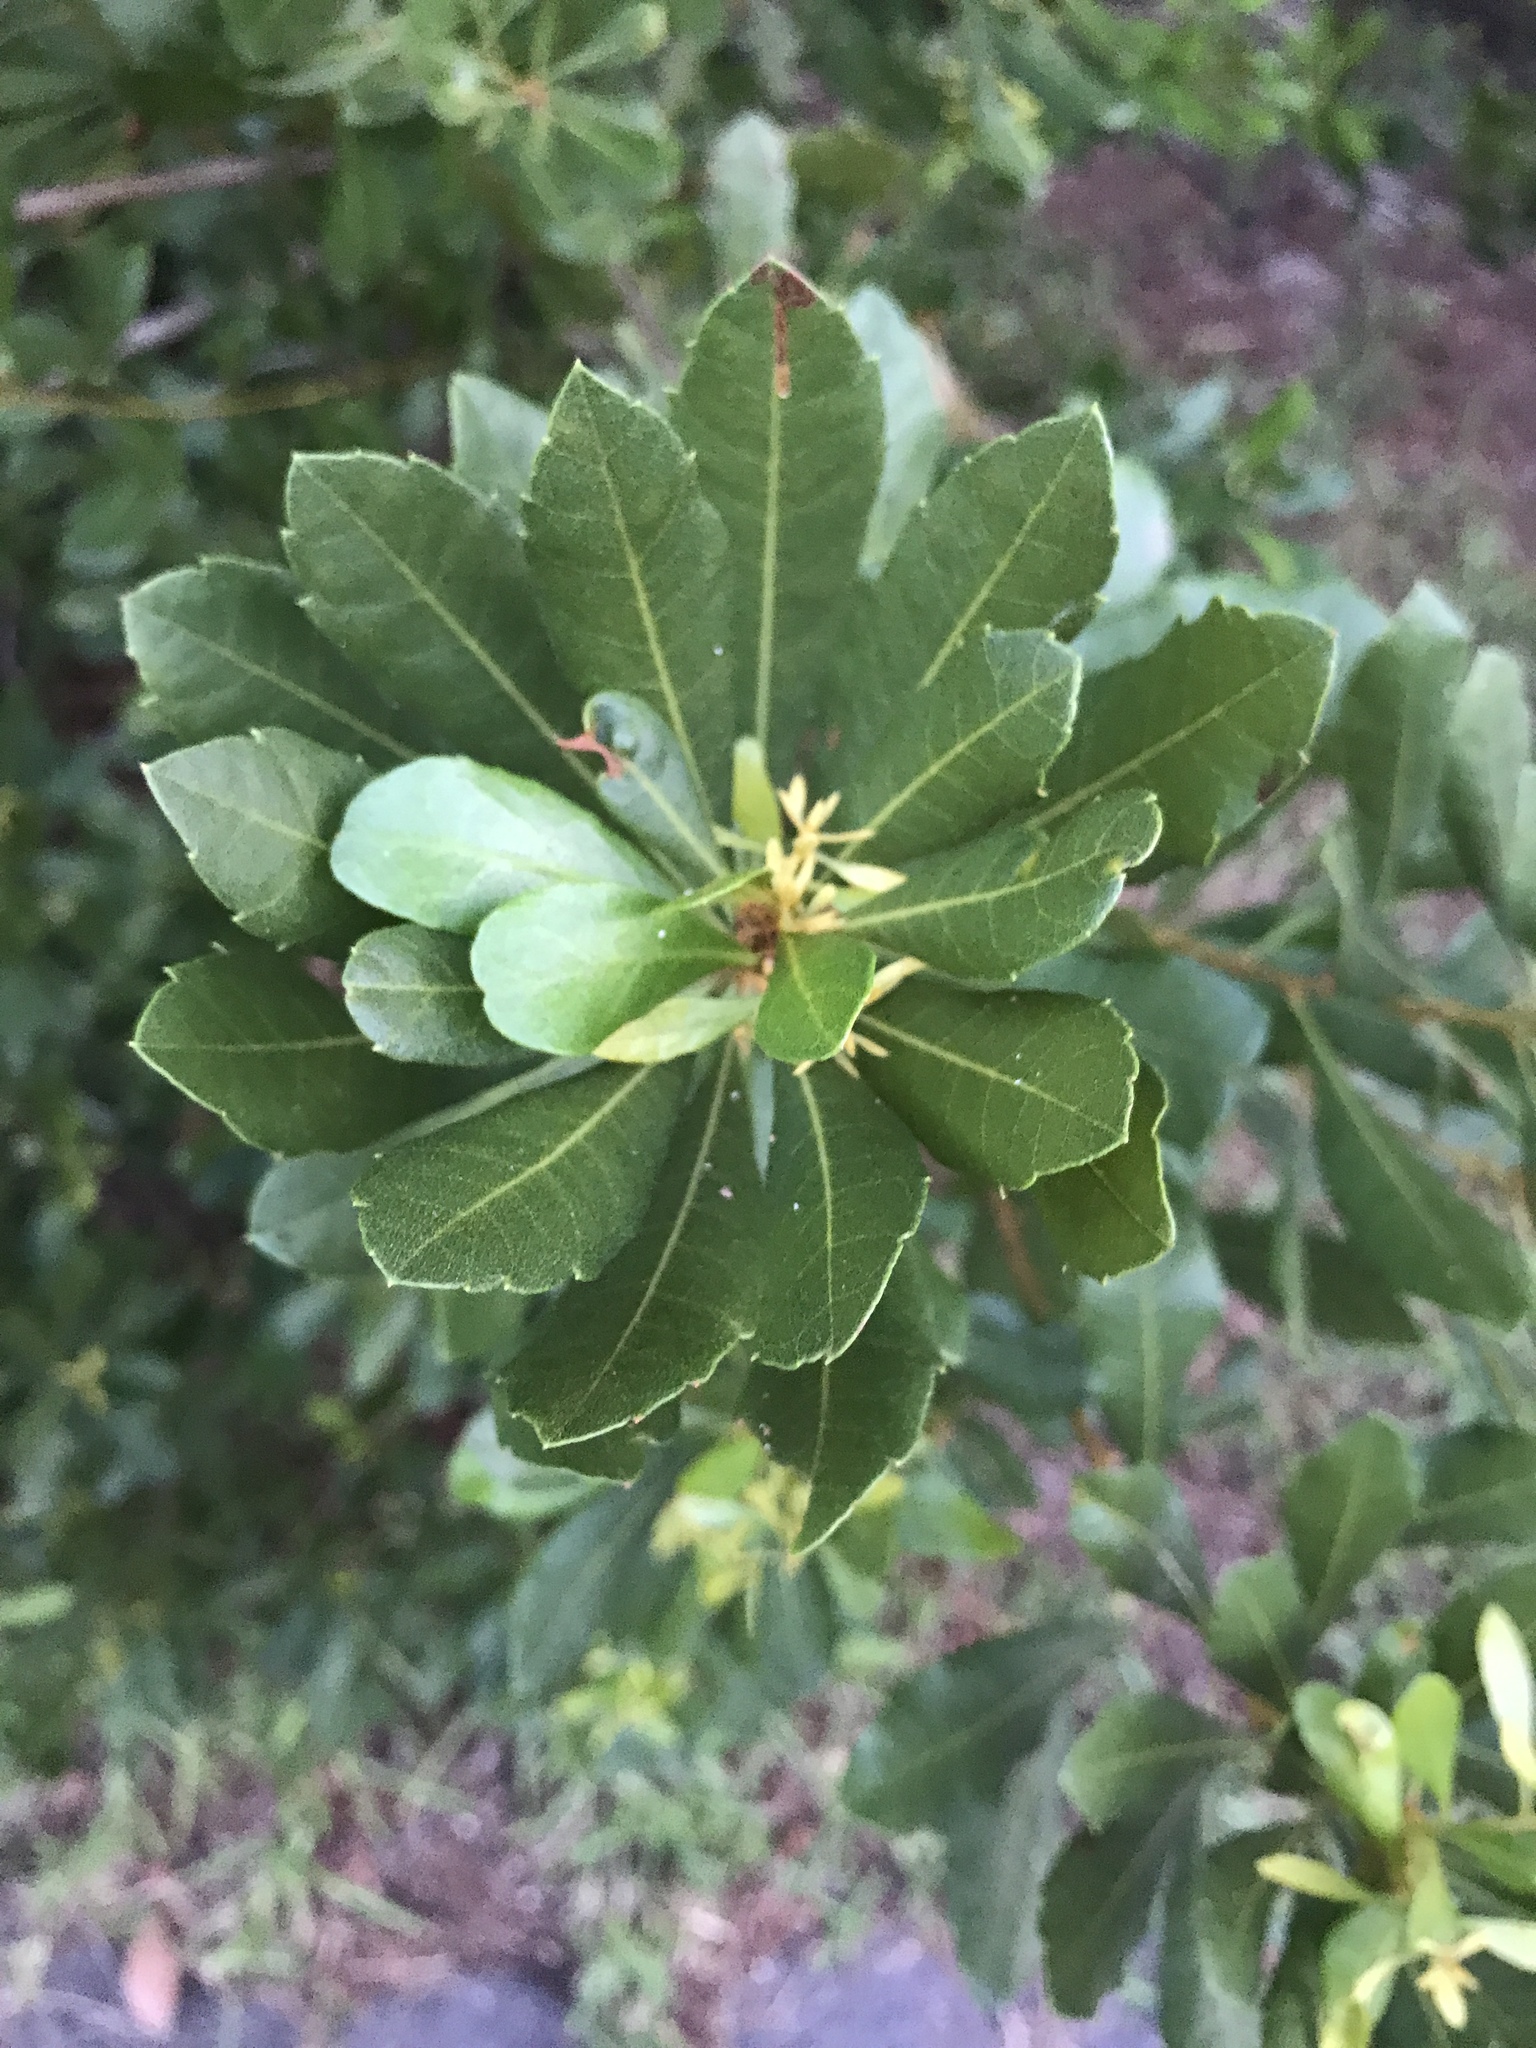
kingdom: Plantae
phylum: Tracheophyta
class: Magnoliopsida
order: Fagales
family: Myricaceae
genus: Morella
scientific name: Morella cerifera
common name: Wax myrtle
